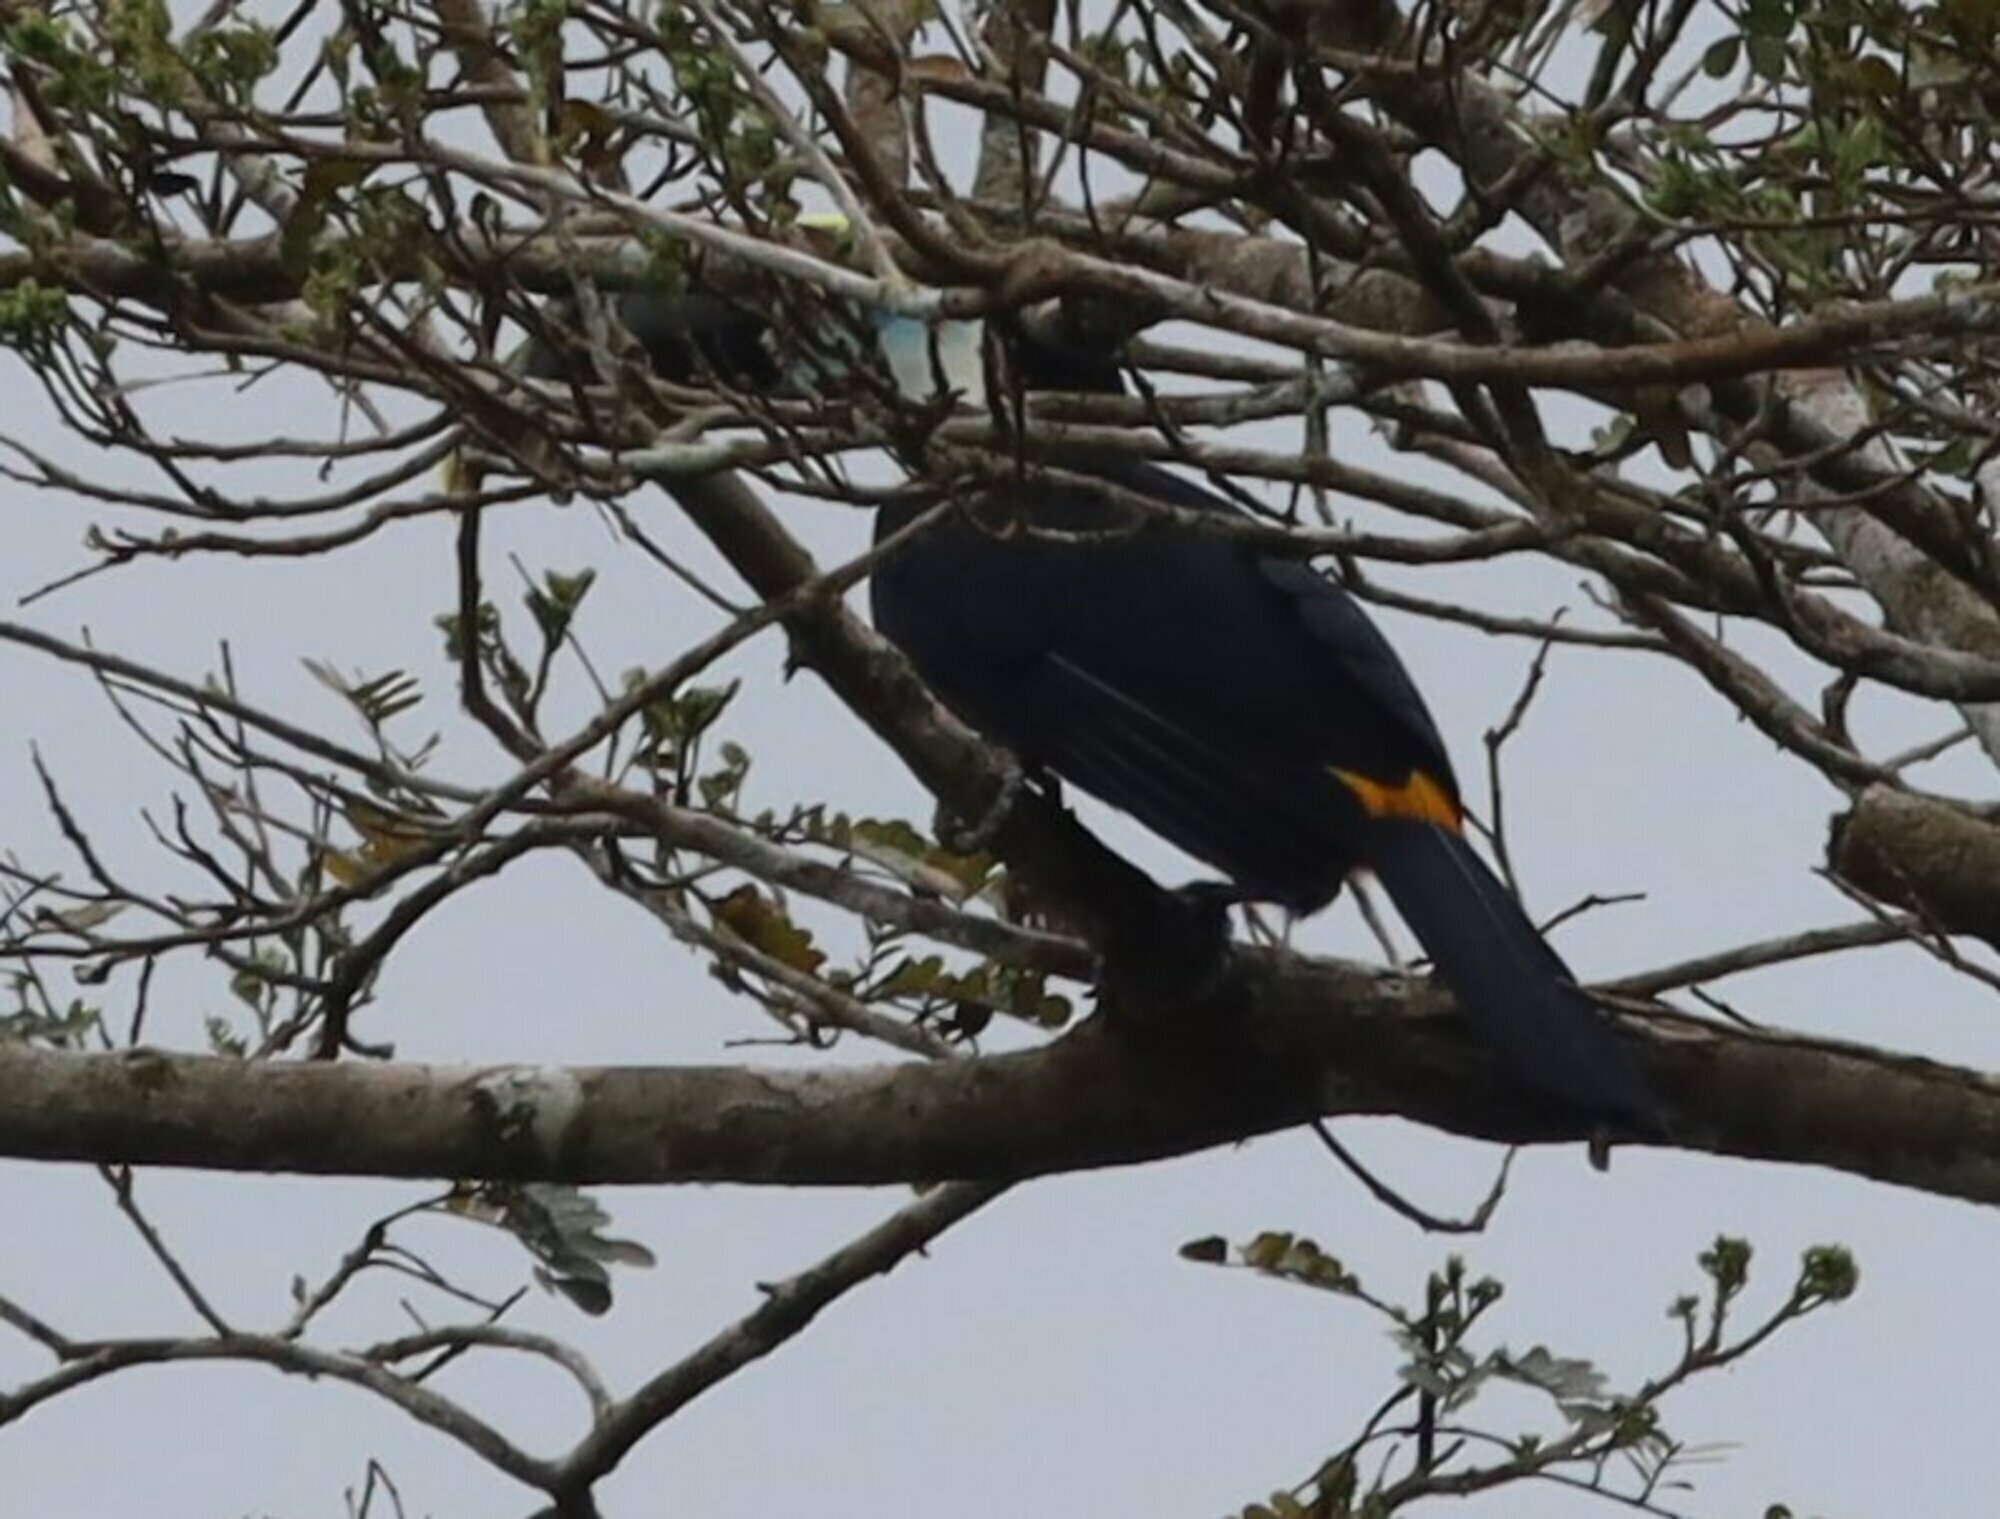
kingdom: Animalia
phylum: Chordata
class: Aves
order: Piciformes
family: Ramphastidae
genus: Ramphastos
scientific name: Ramphastos tucanus
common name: White-throated toucan
